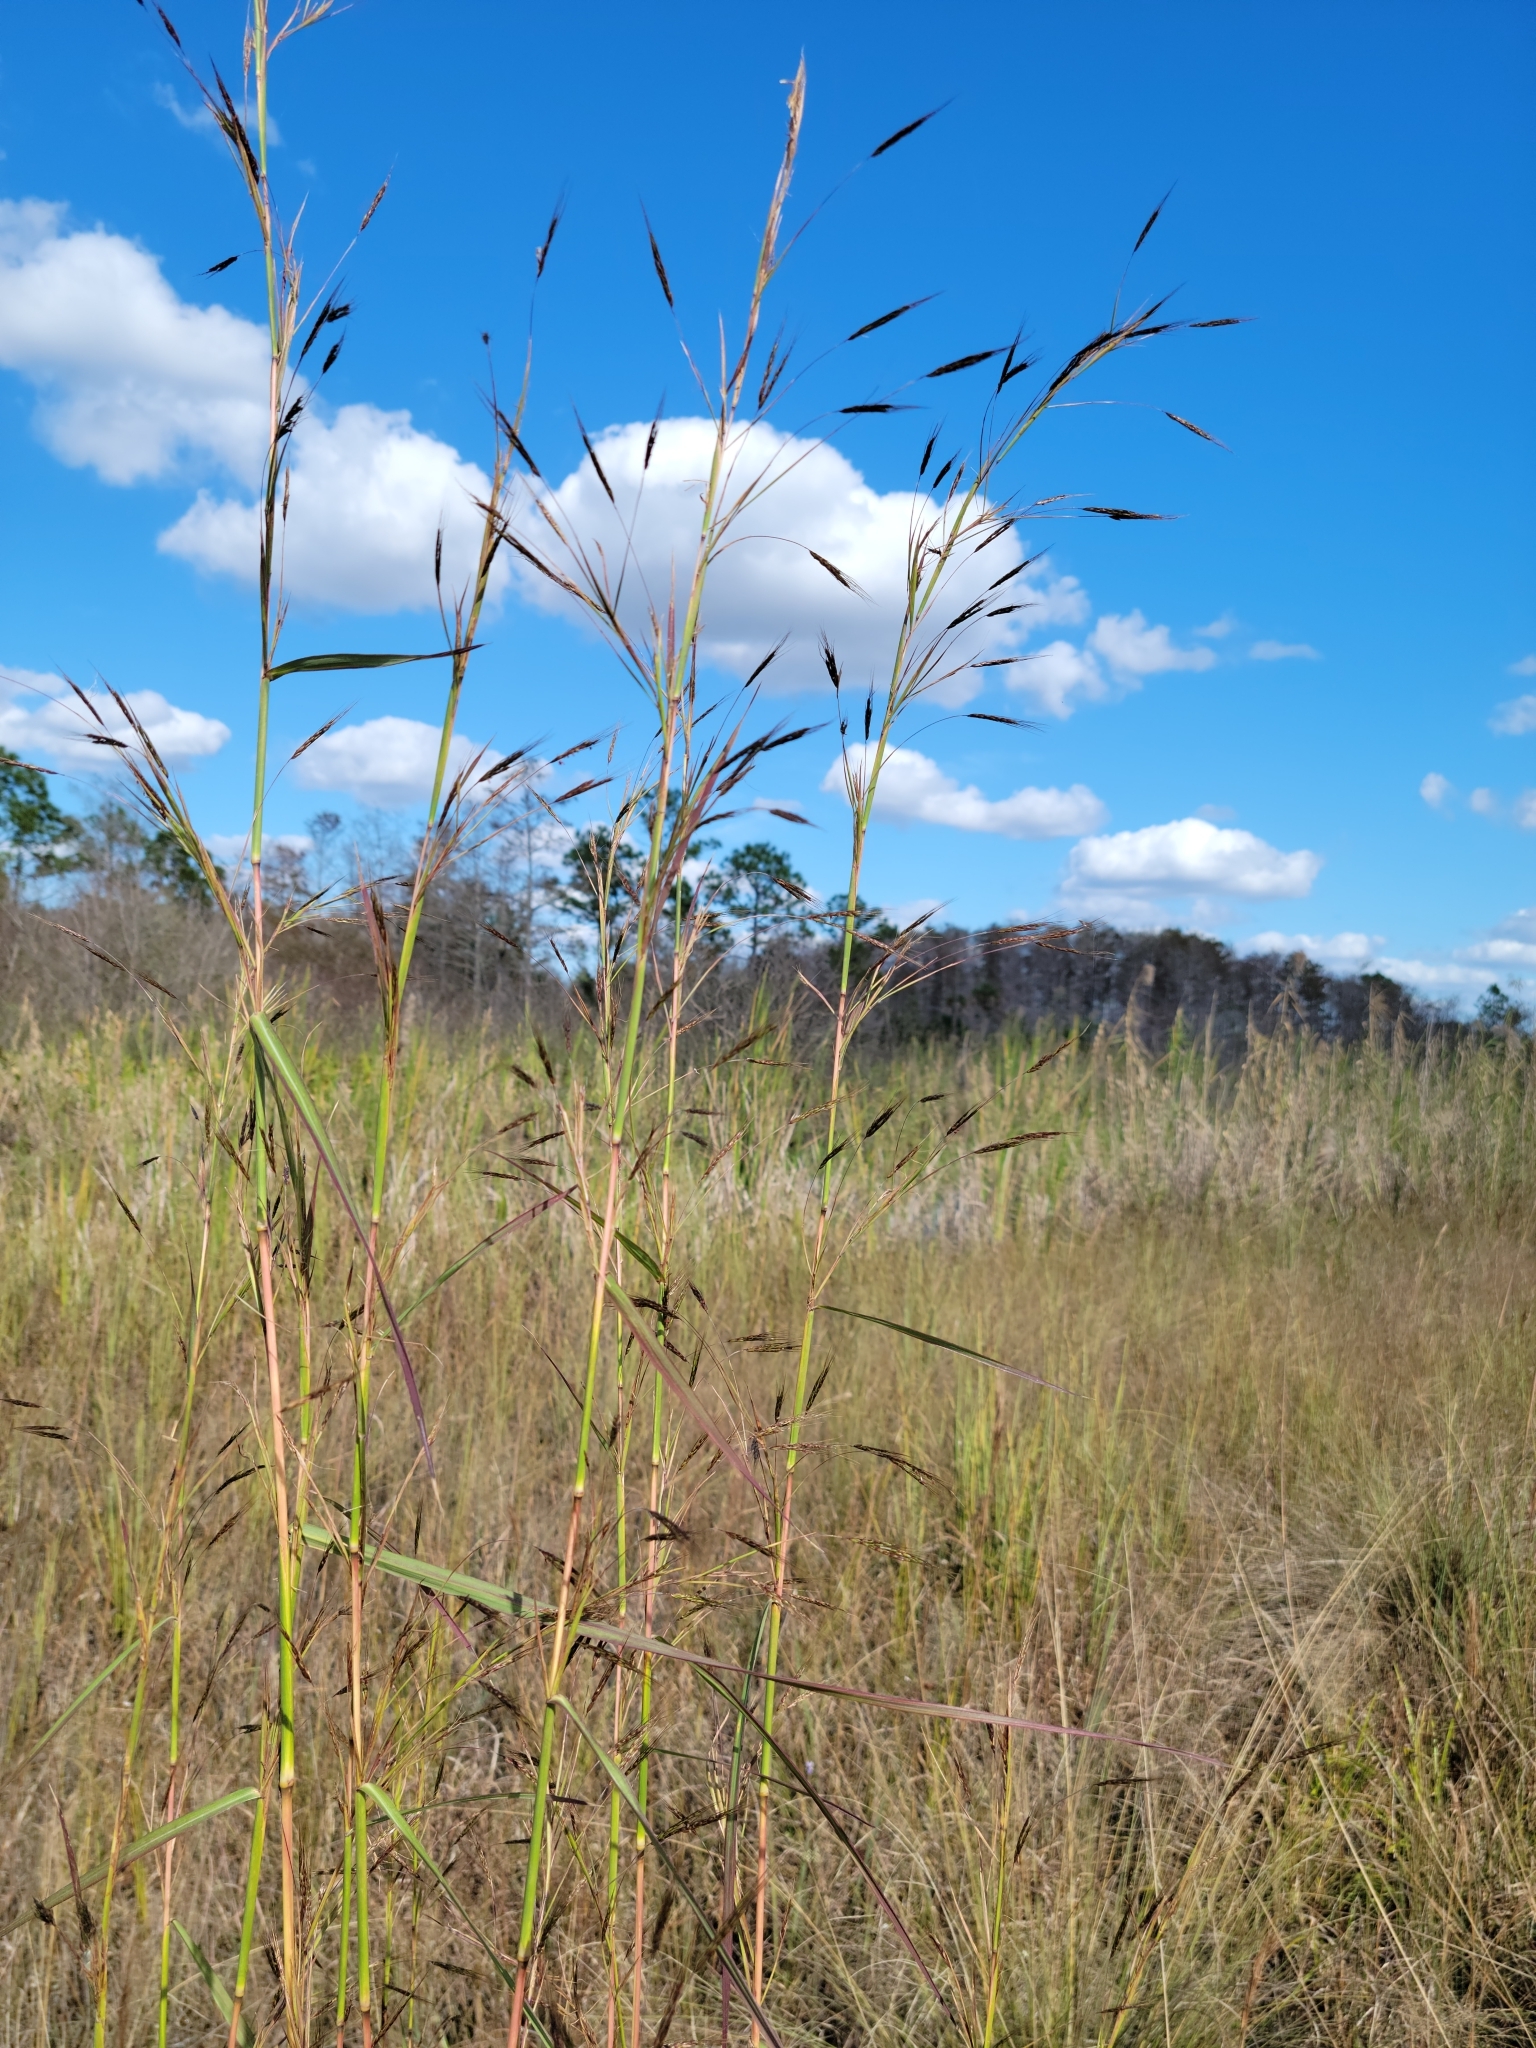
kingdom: Plantae
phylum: Tracheophyta
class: Liliopsida
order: Poales
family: Poaceae
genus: Hyparrhenia
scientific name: Hyparrhenia rufa
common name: Jaraguagrass
